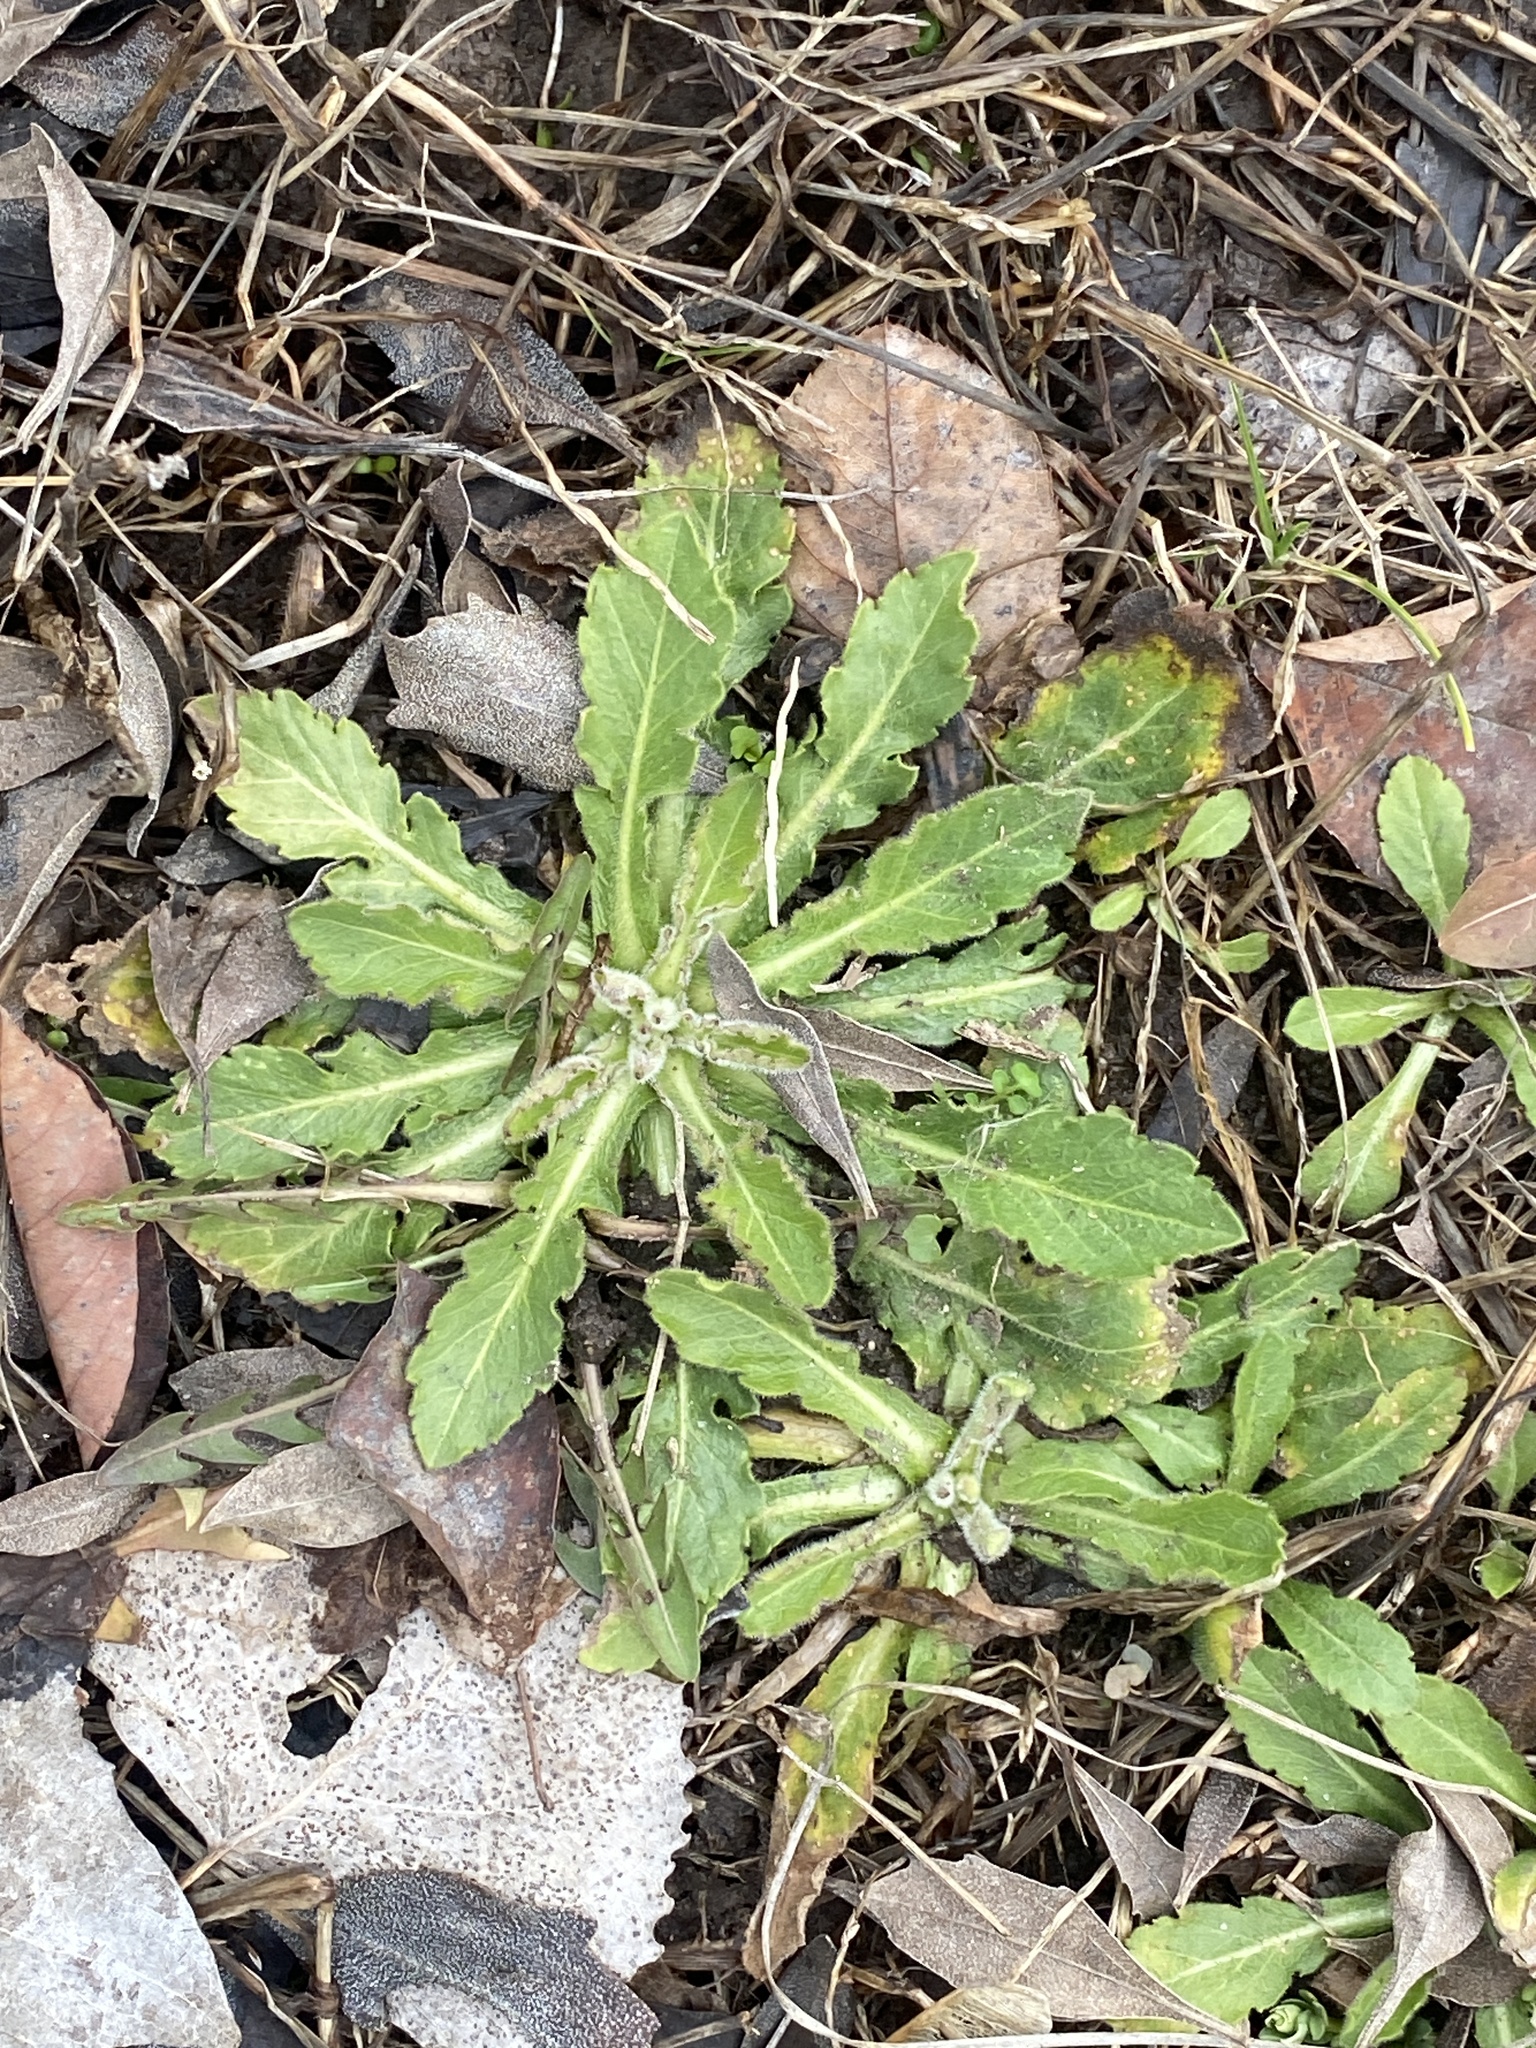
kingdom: Plantae
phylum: Tracheophyta
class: Magnoliopsida
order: Asterales
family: Asteraceae
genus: Hypochaeris
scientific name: Hypochaeris radicata
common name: Flatweed
